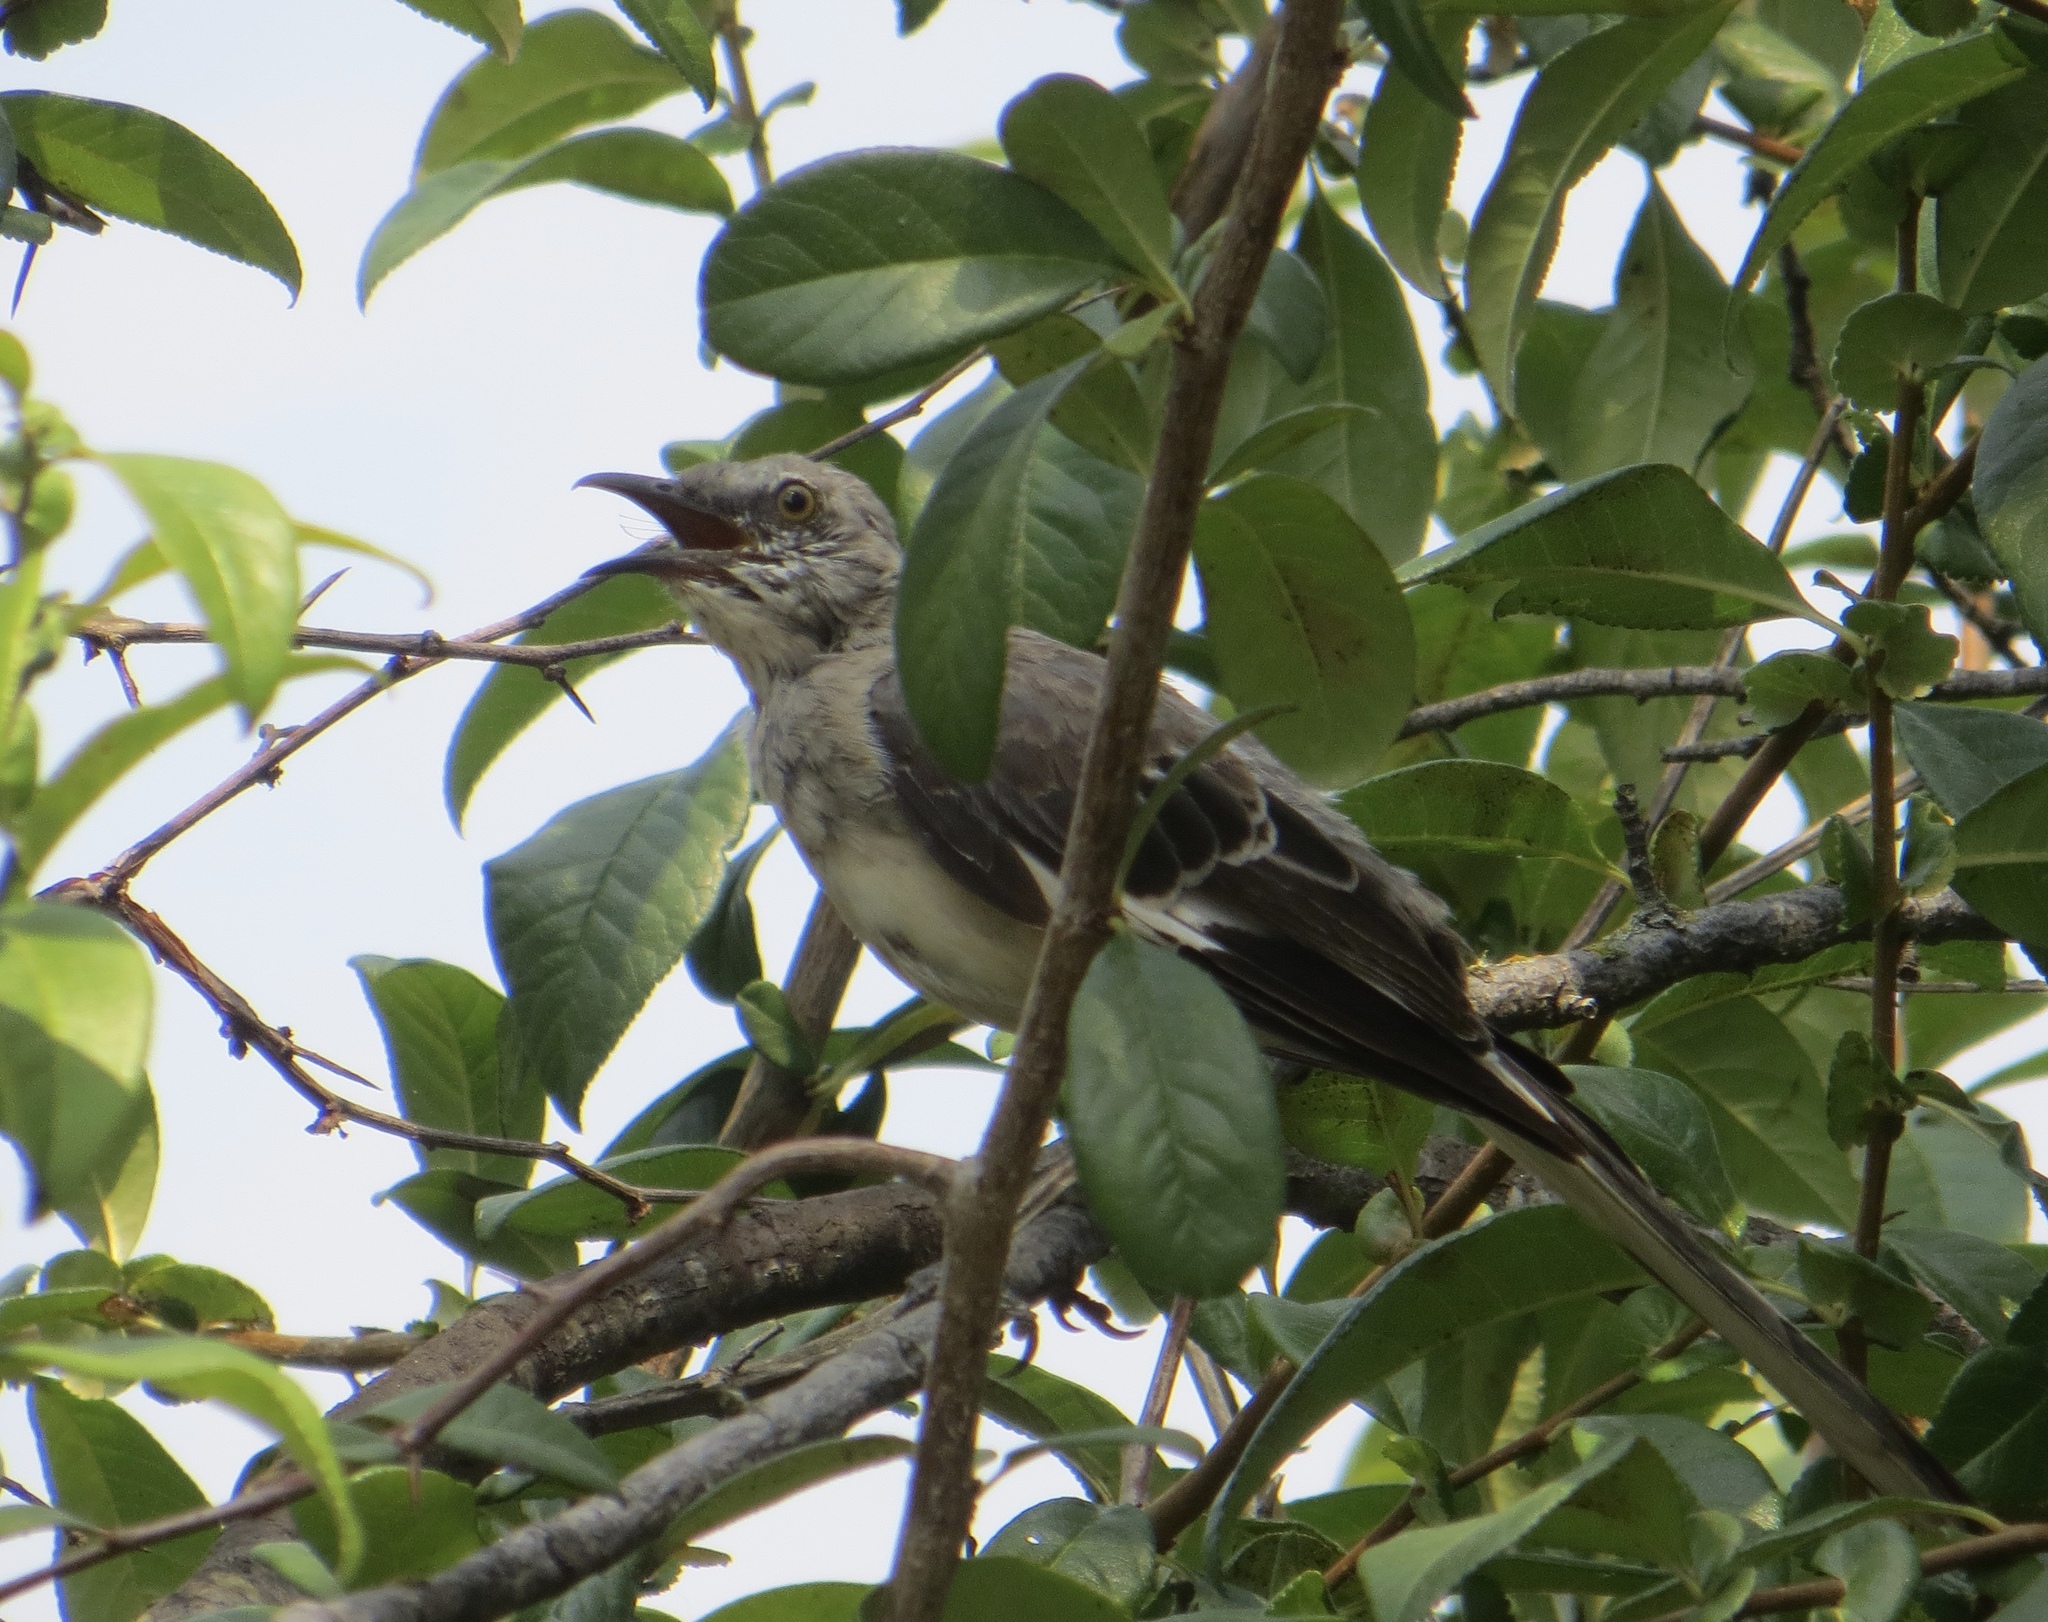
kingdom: Animalia
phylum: Chordata
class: Aves
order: Passeriformes
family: Mimidae
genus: Mimus
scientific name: Mimus polyglottos
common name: Northern mockingbird
